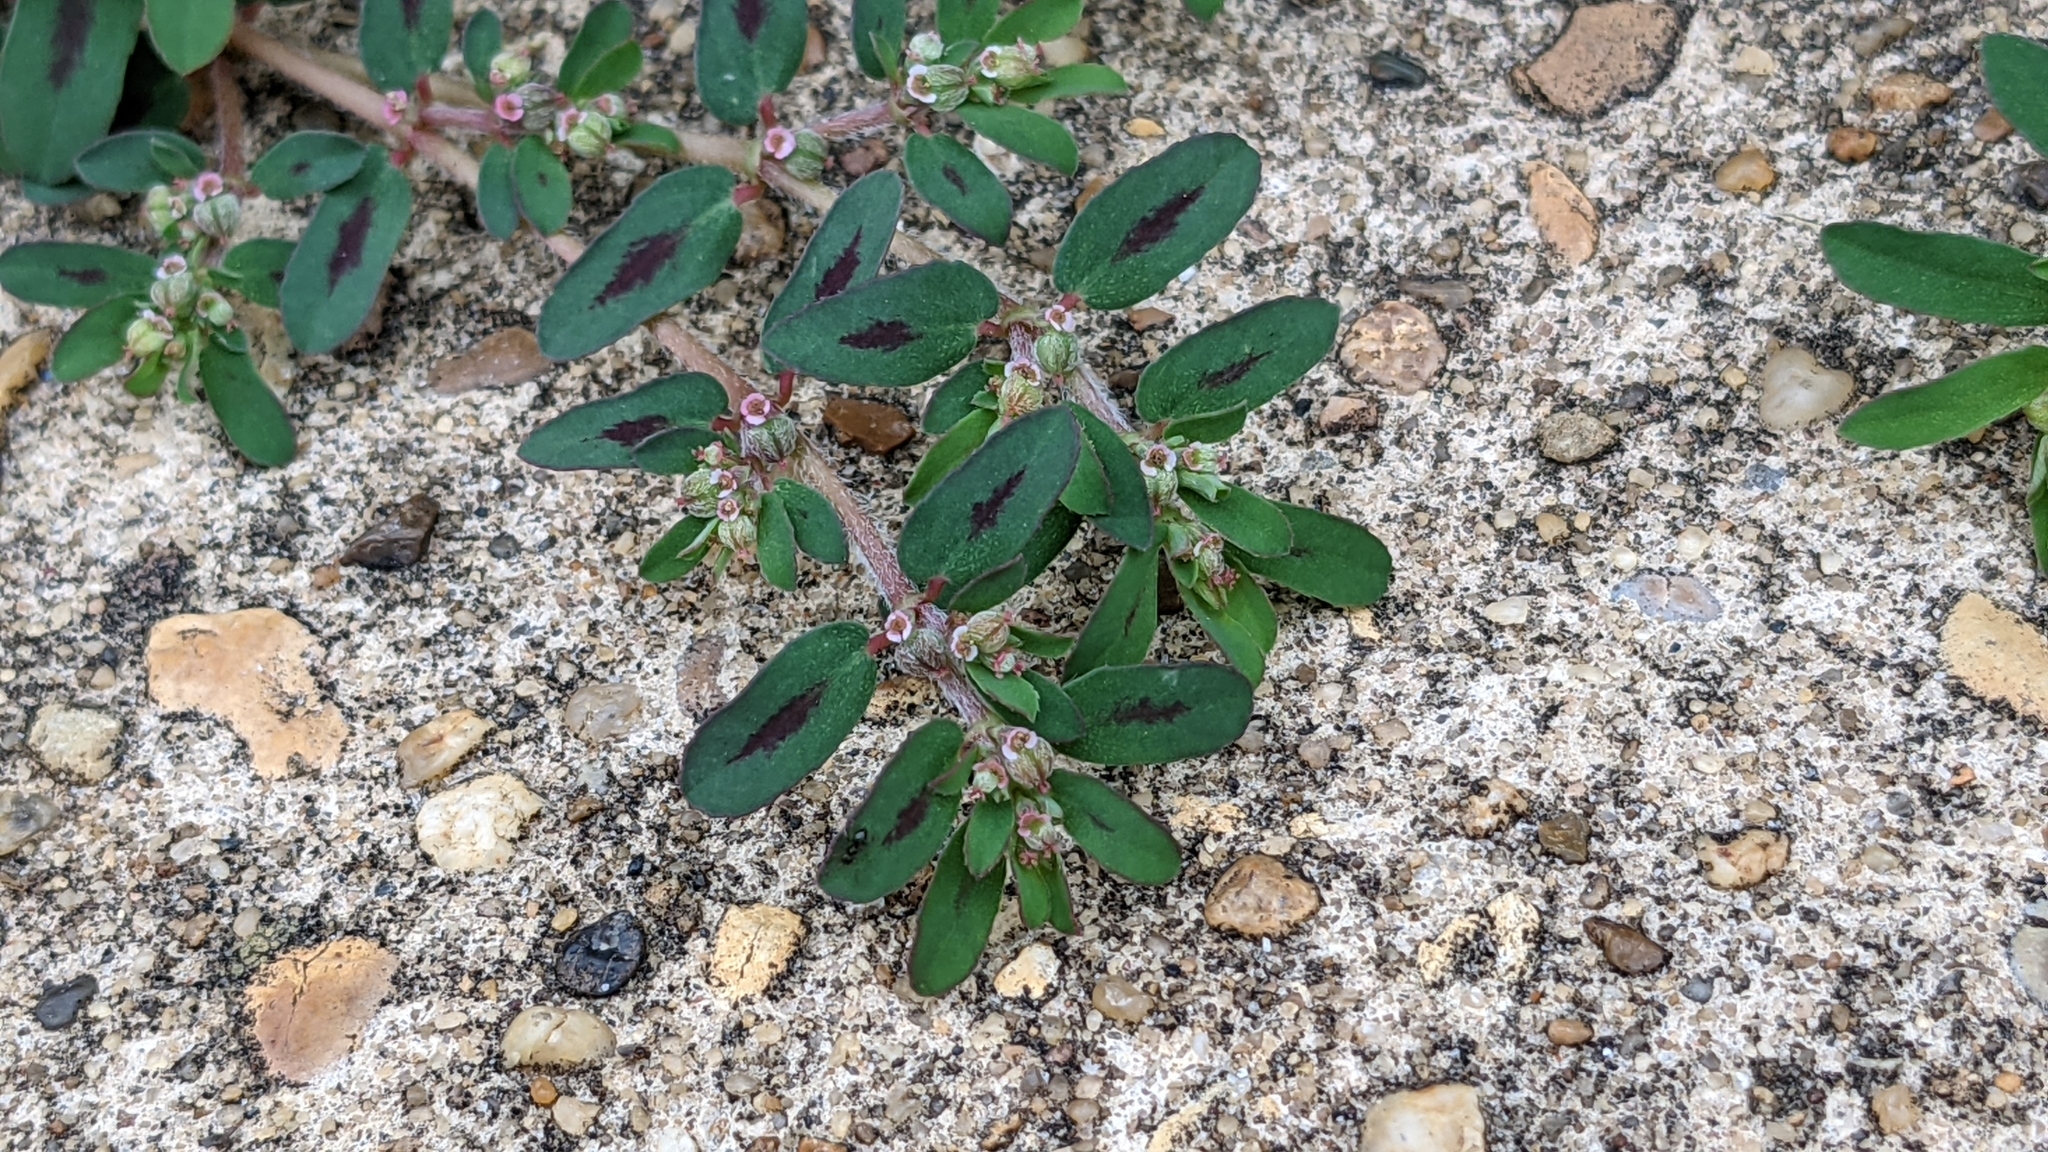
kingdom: Plantae
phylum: Tracheophyta
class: Magnoliopsida
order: Malpighiales
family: Euphorbiaceae
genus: Euphorbia
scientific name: Euphorbia maculata
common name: Spotted spurge
